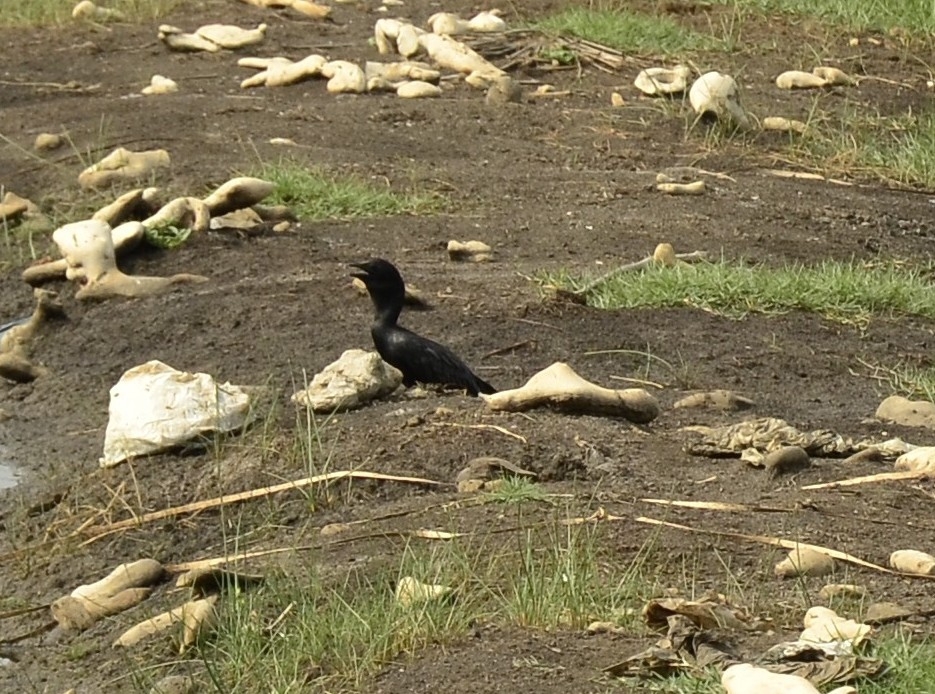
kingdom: Animalia
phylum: Chordata
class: Aves
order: Suliformes
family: Phalacrocoracidae
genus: Microcarbo
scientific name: Microcarbo niger
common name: Little cormorant
